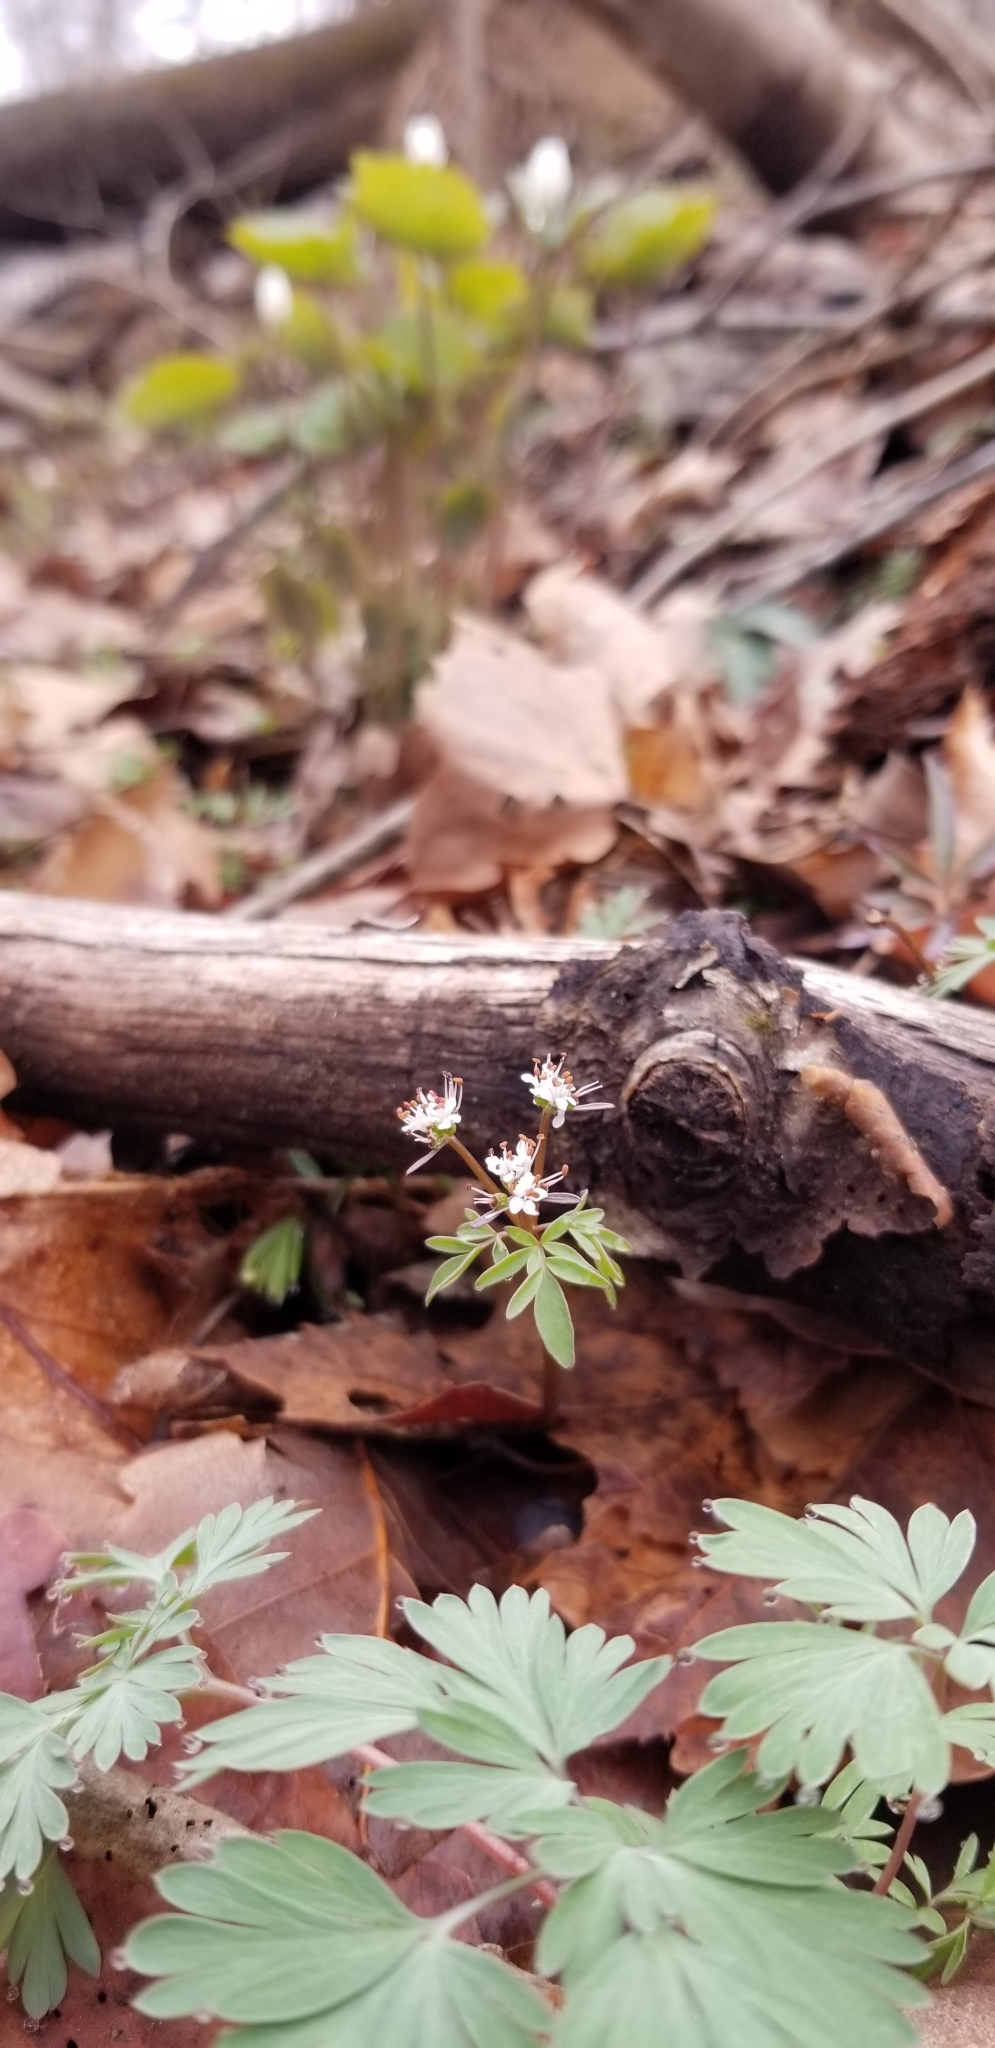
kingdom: Plantae
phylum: Tracheophyta
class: Magnoliopsida
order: Apiales
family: Apiaceae
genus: Erigenia
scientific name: Erigenia bulbosa
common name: Pepper-and-salt
